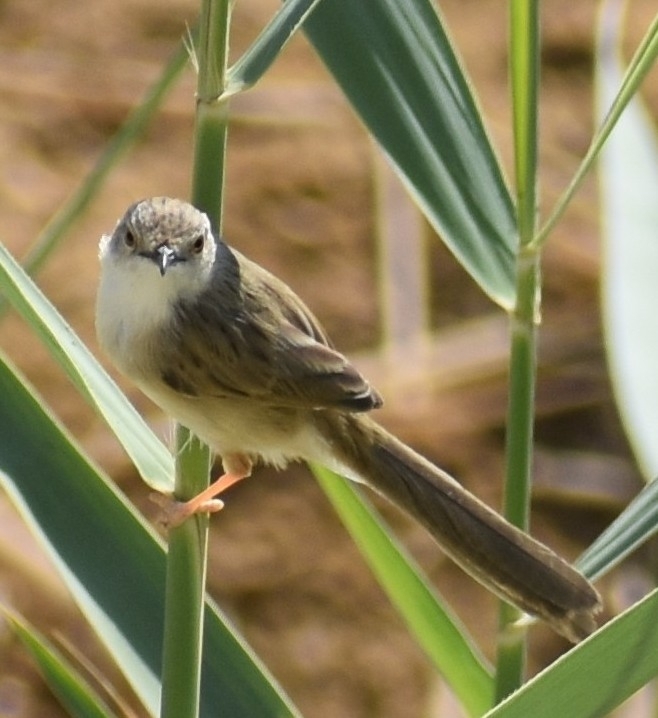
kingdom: Animalia
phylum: Chordata
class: Aves
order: Passeriformes
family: Cisticolidae
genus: Prinia
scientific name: Prinia lepida
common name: Delicate prinia
